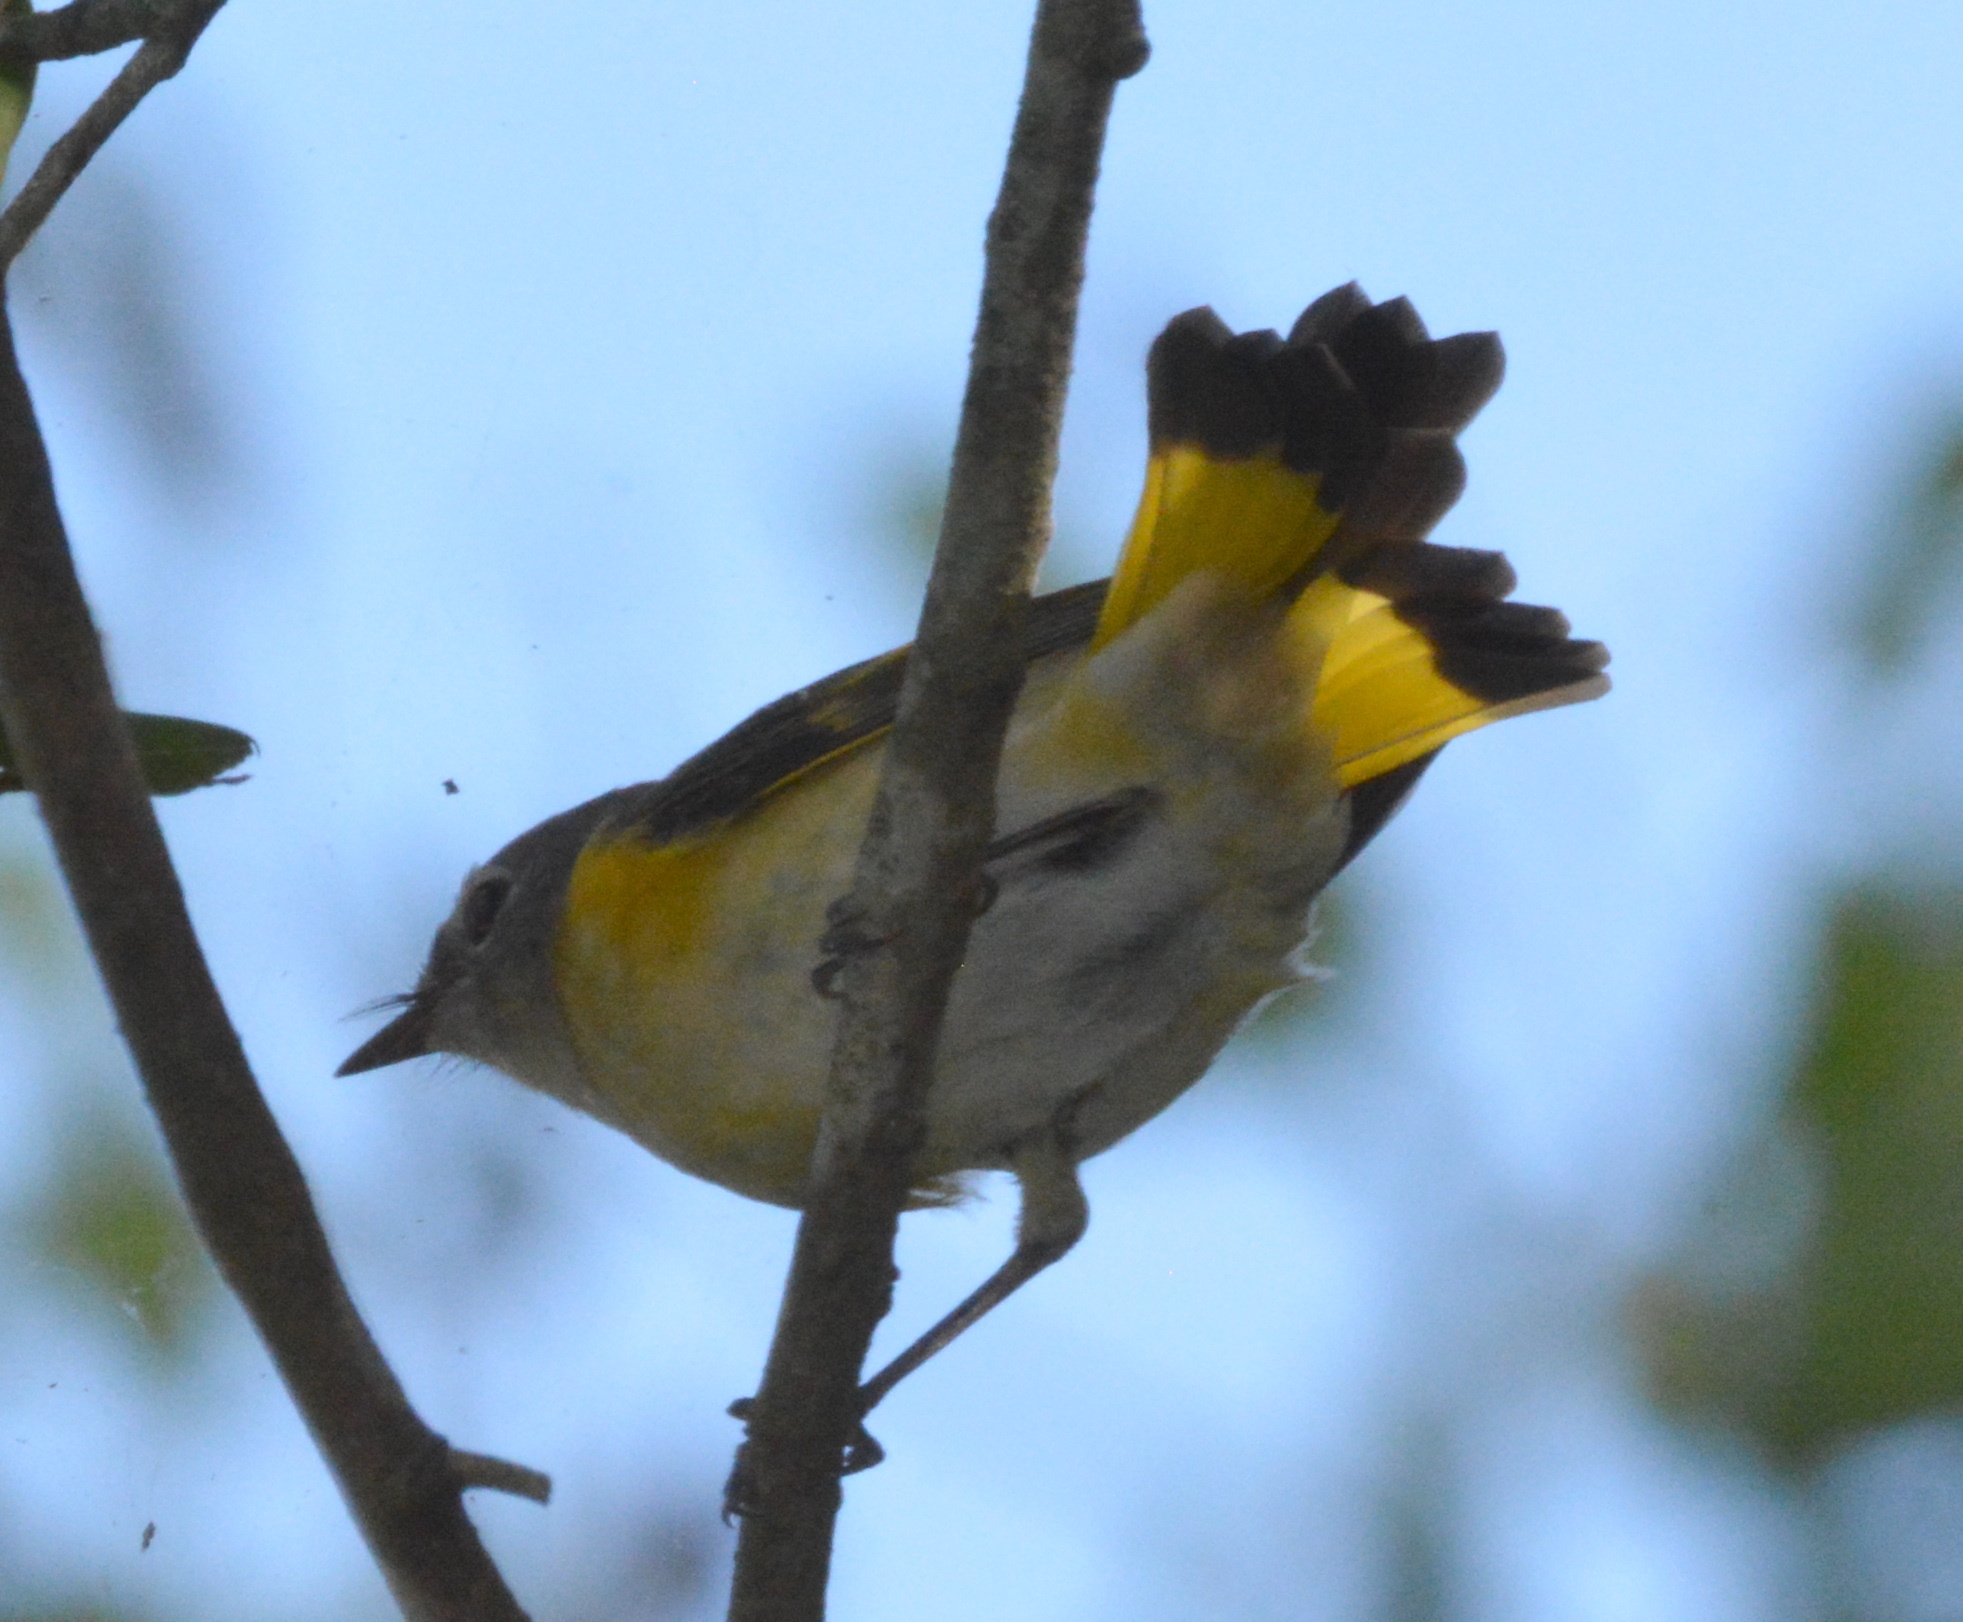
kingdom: Animalia
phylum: Chordata
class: Aves
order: Passeriformes
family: Parulidae
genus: Setophaga
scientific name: Setophaga ruticilla
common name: American redstart
